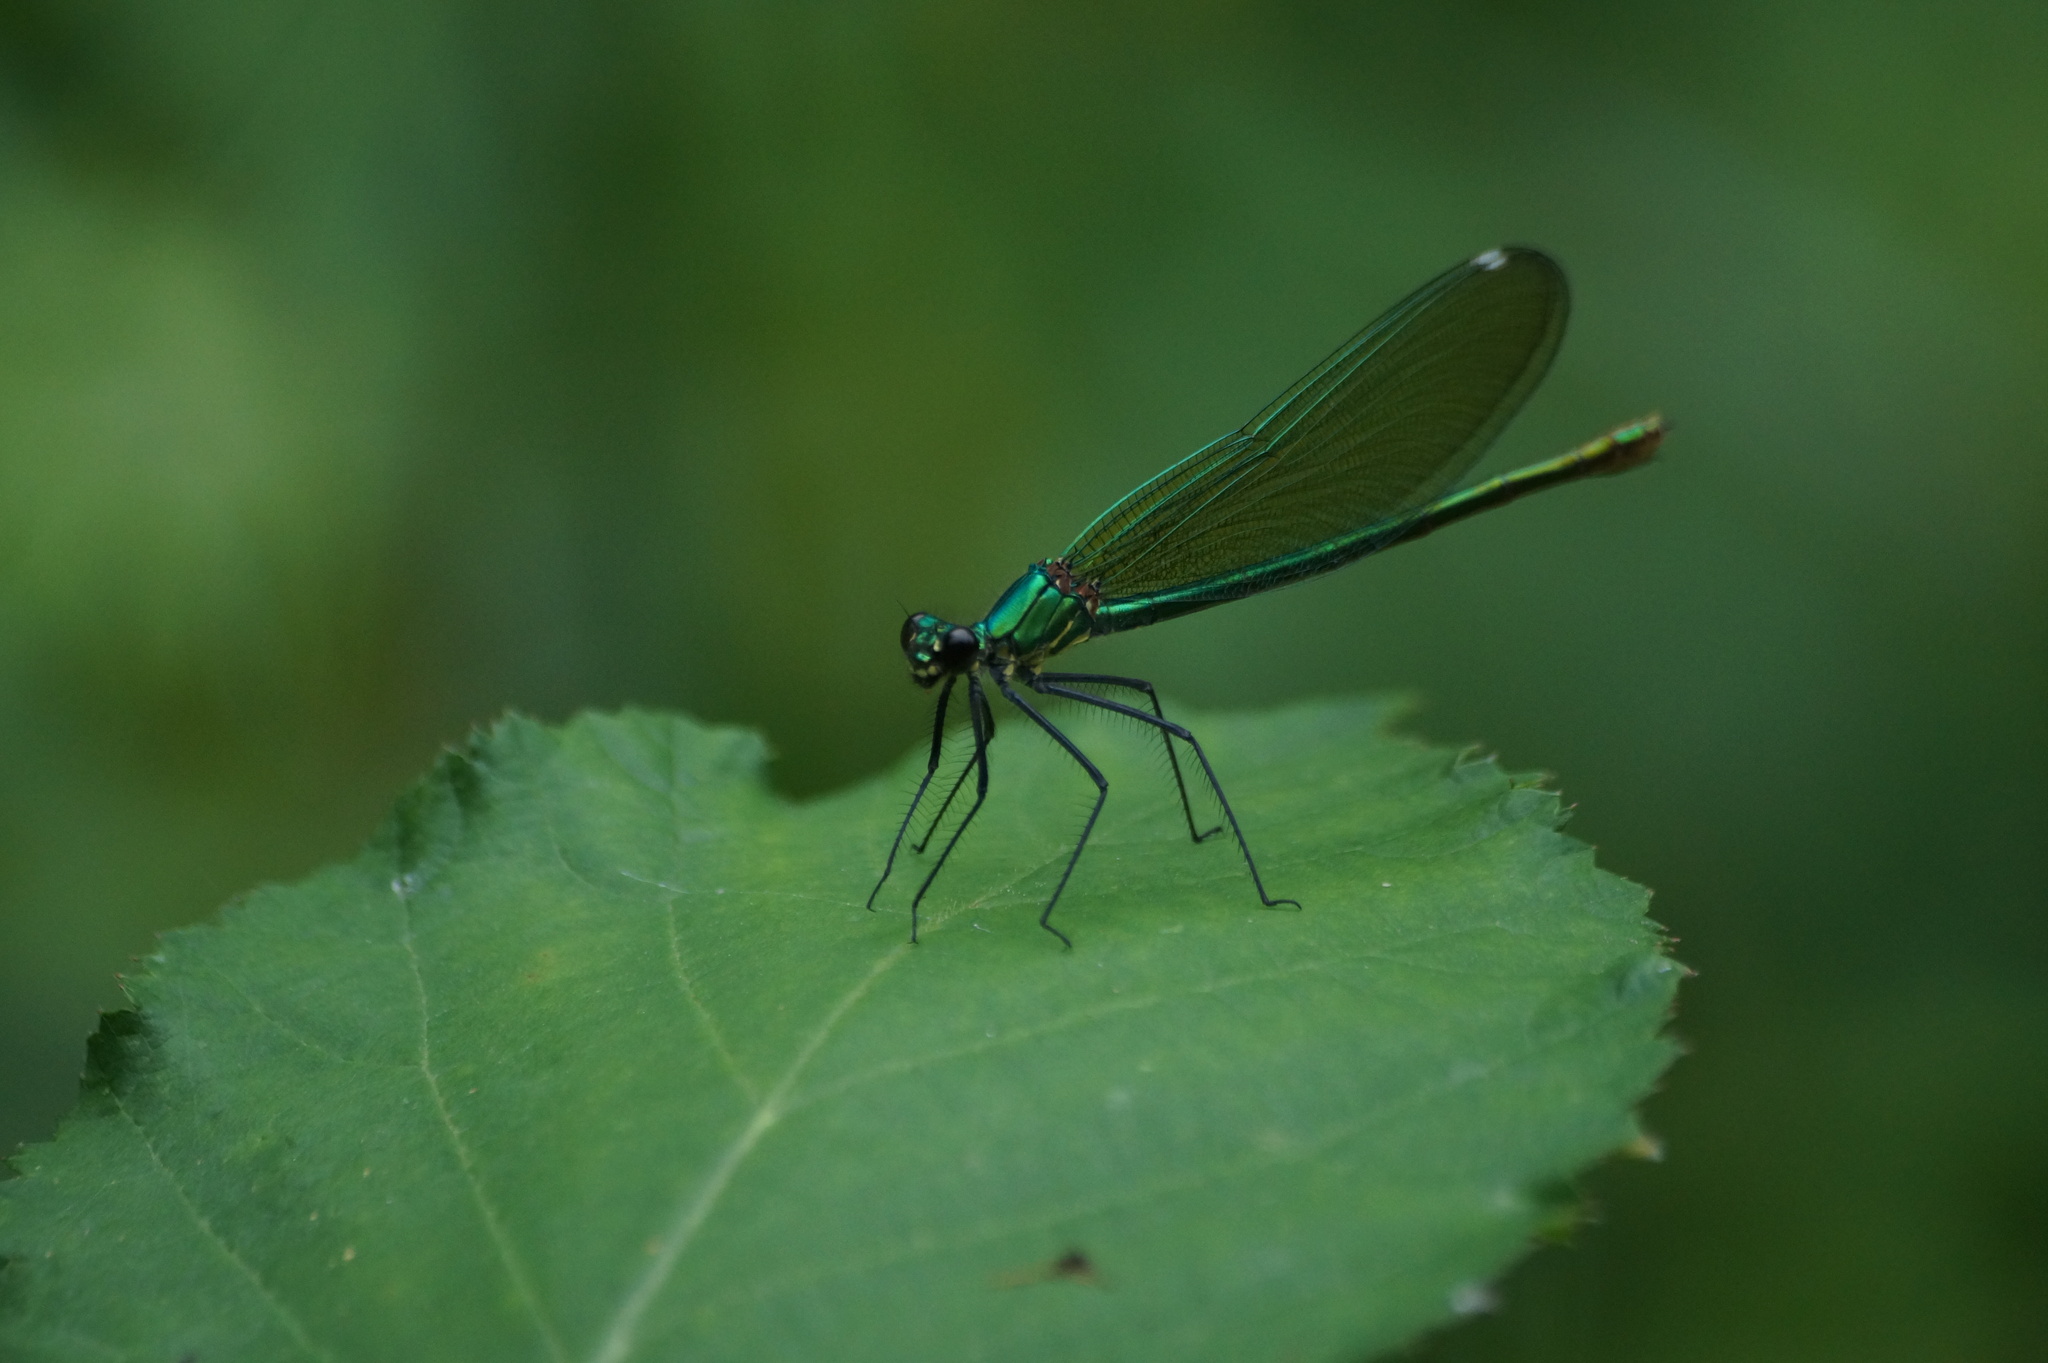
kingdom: Animalia
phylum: Arthropoda
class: Insecta
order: Odonata
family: Calopterygidae
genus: Calopteryx
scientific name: Calopteryx splendens
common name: Banded demoiselle
